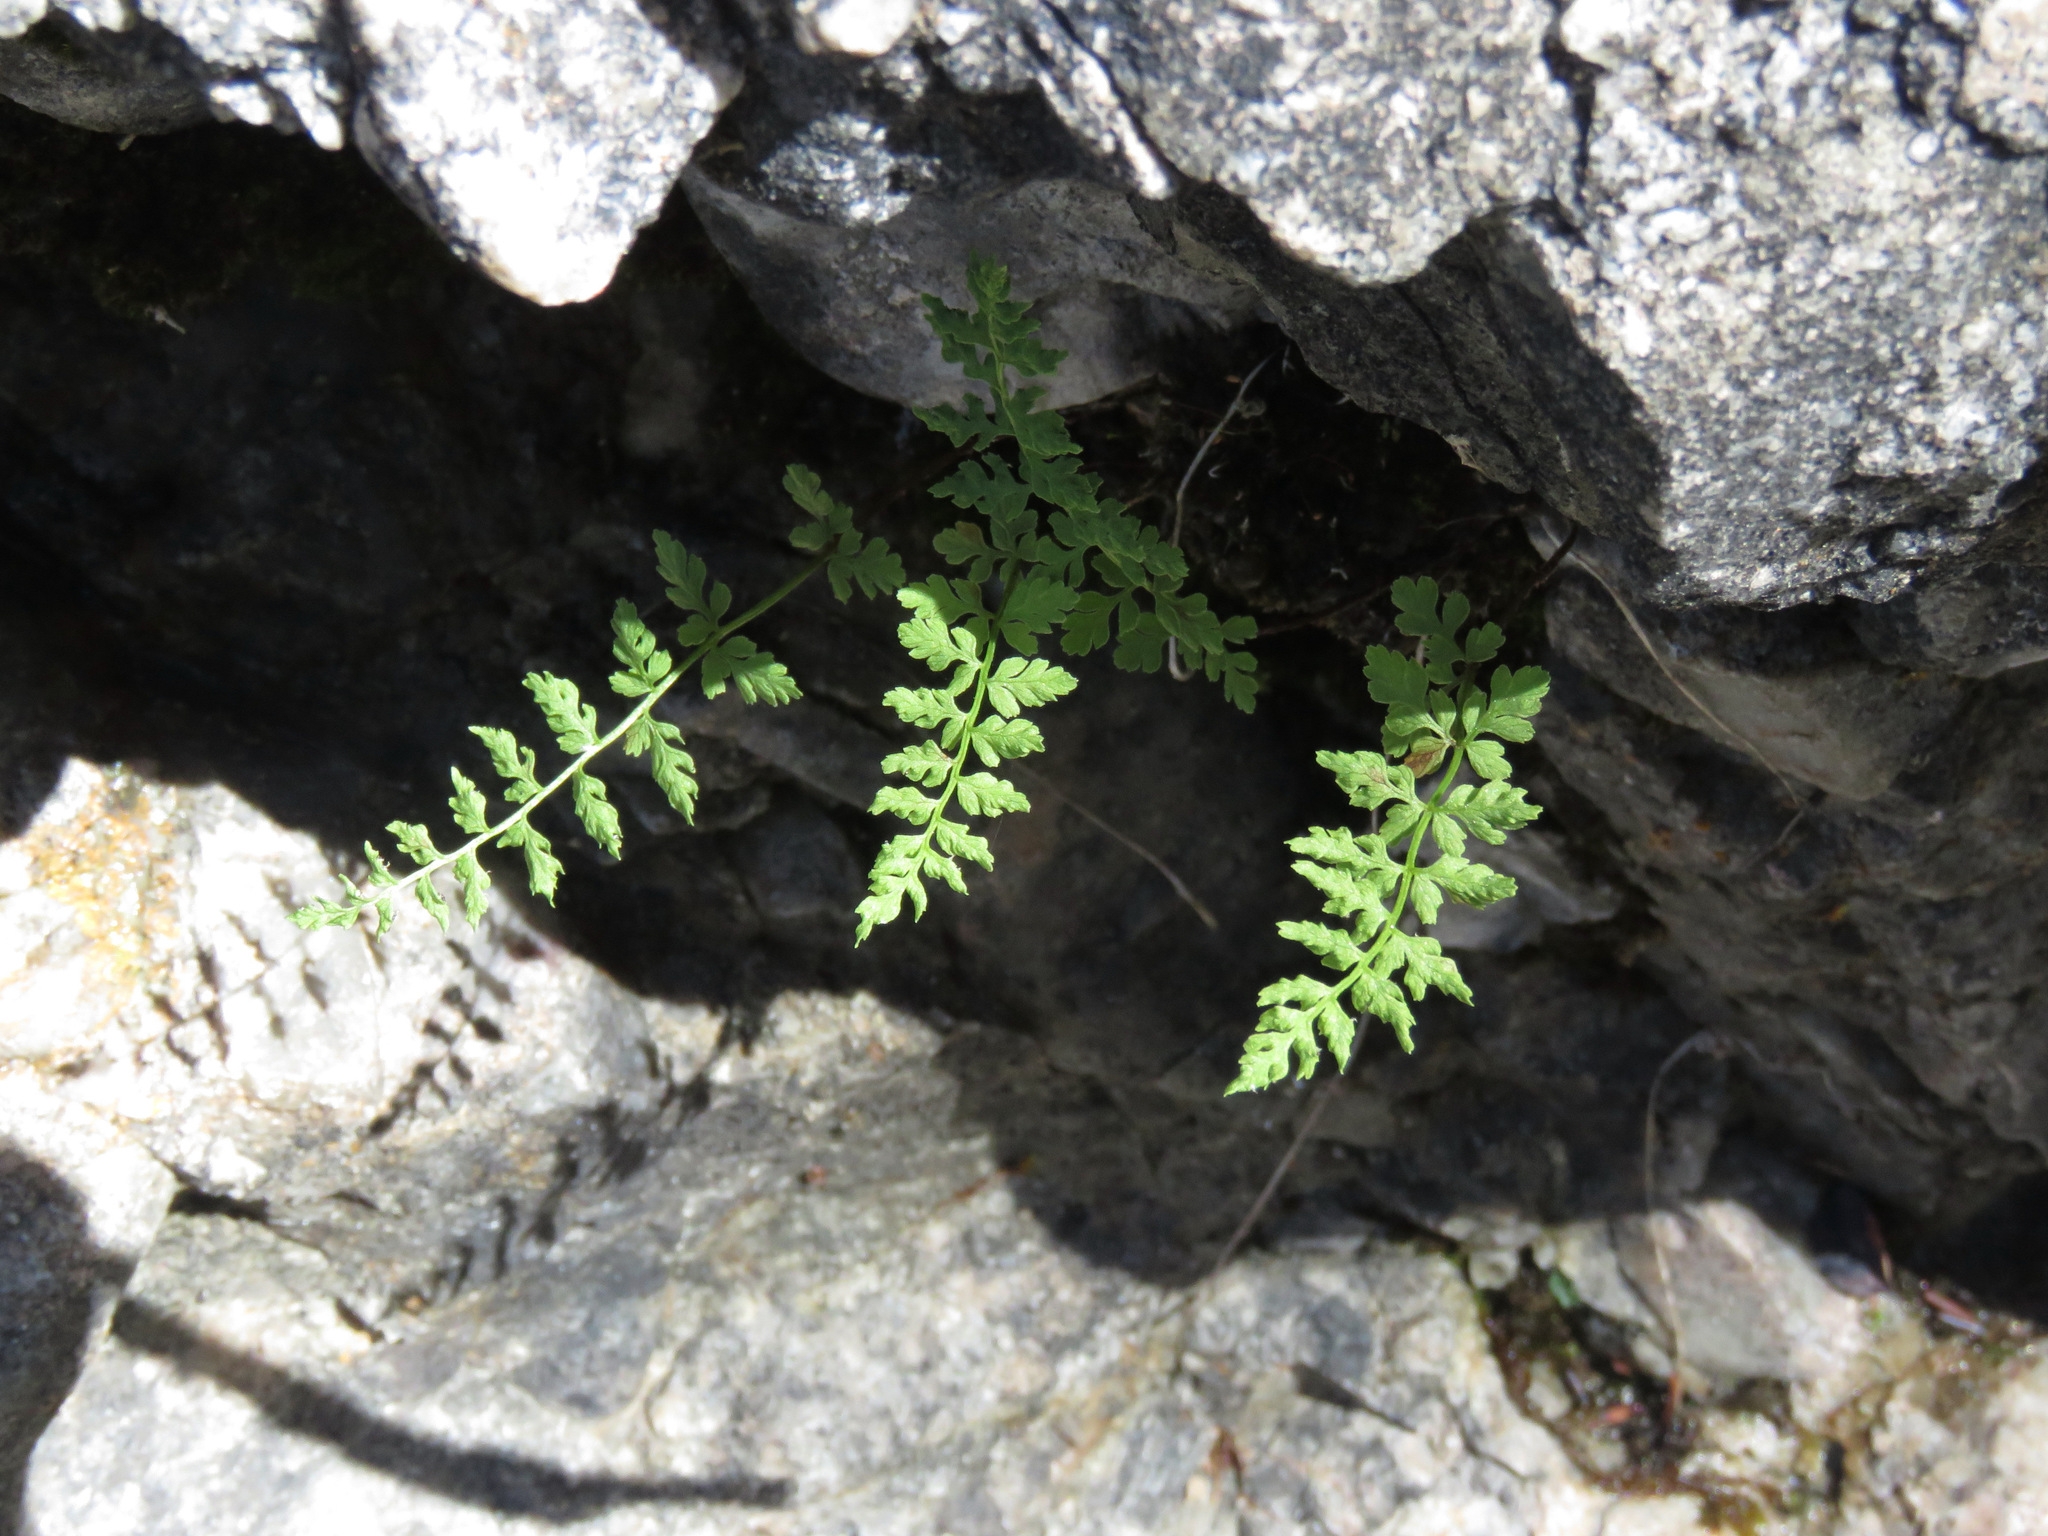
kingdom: Plantae
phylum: Tracheophyta
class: Polypodiopsida
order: Polypodiales
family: Cystopteridaceae
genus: Cystopteris
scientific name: Cystopteris fragilis
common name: Brittle bladder fern
